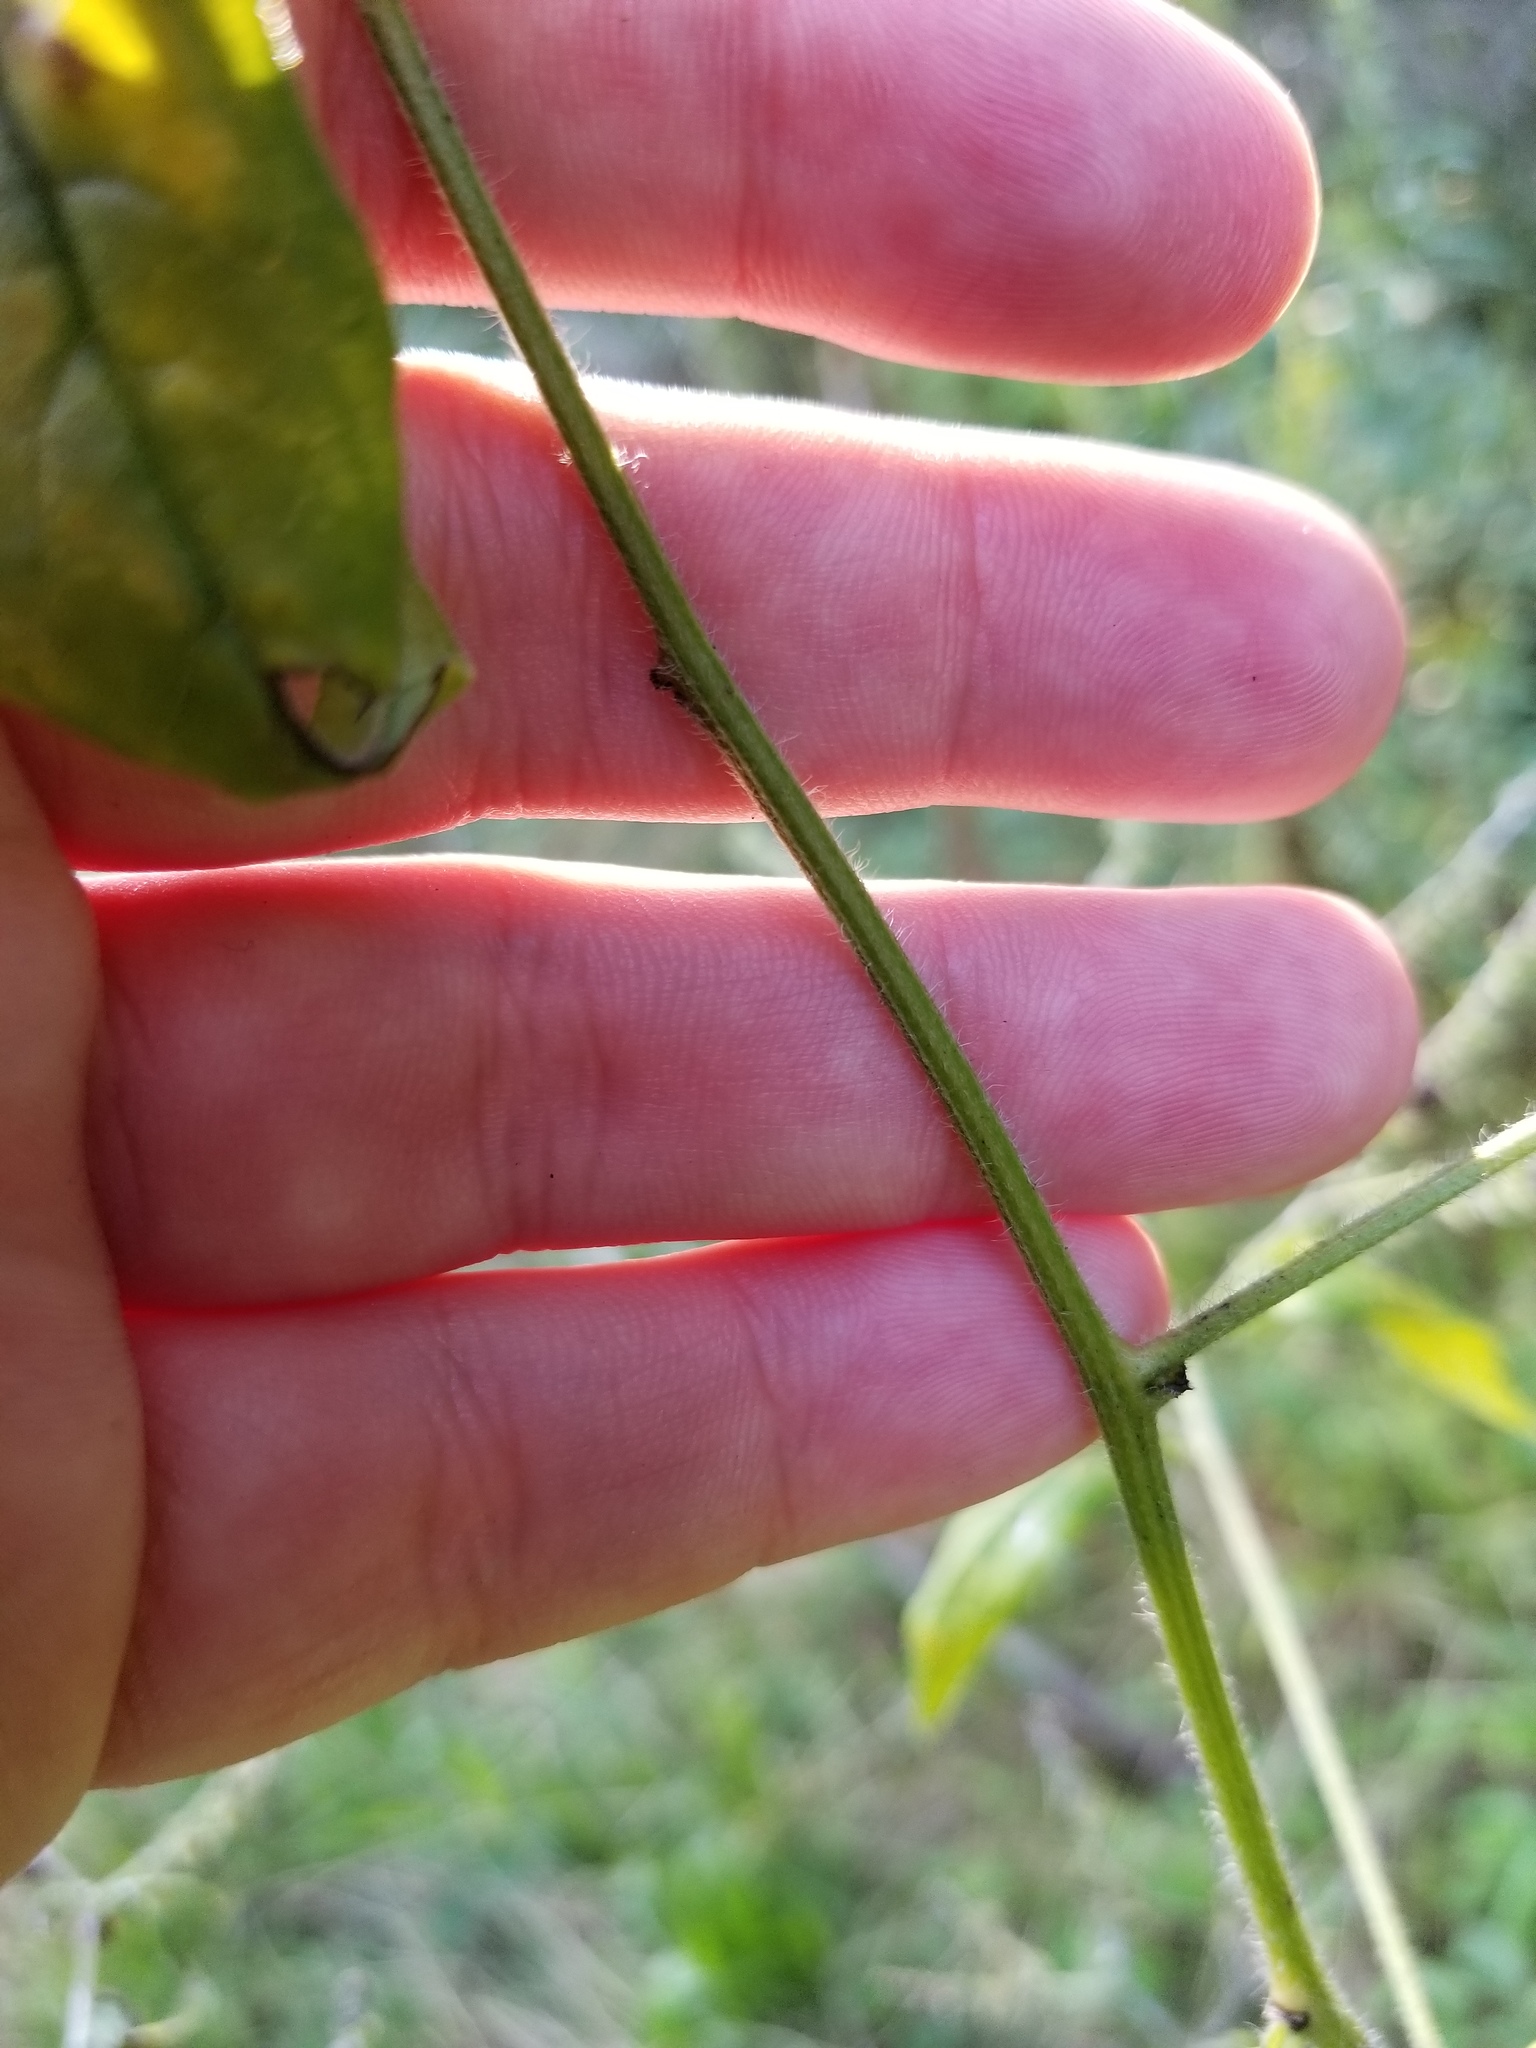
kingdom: Plantae
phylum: Tracheophyta
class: Magnoliopsida
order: Boraginales
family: Boraginaceae
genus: Hackelia
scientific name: Hackelia virginiana
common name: Beggar's-lice
